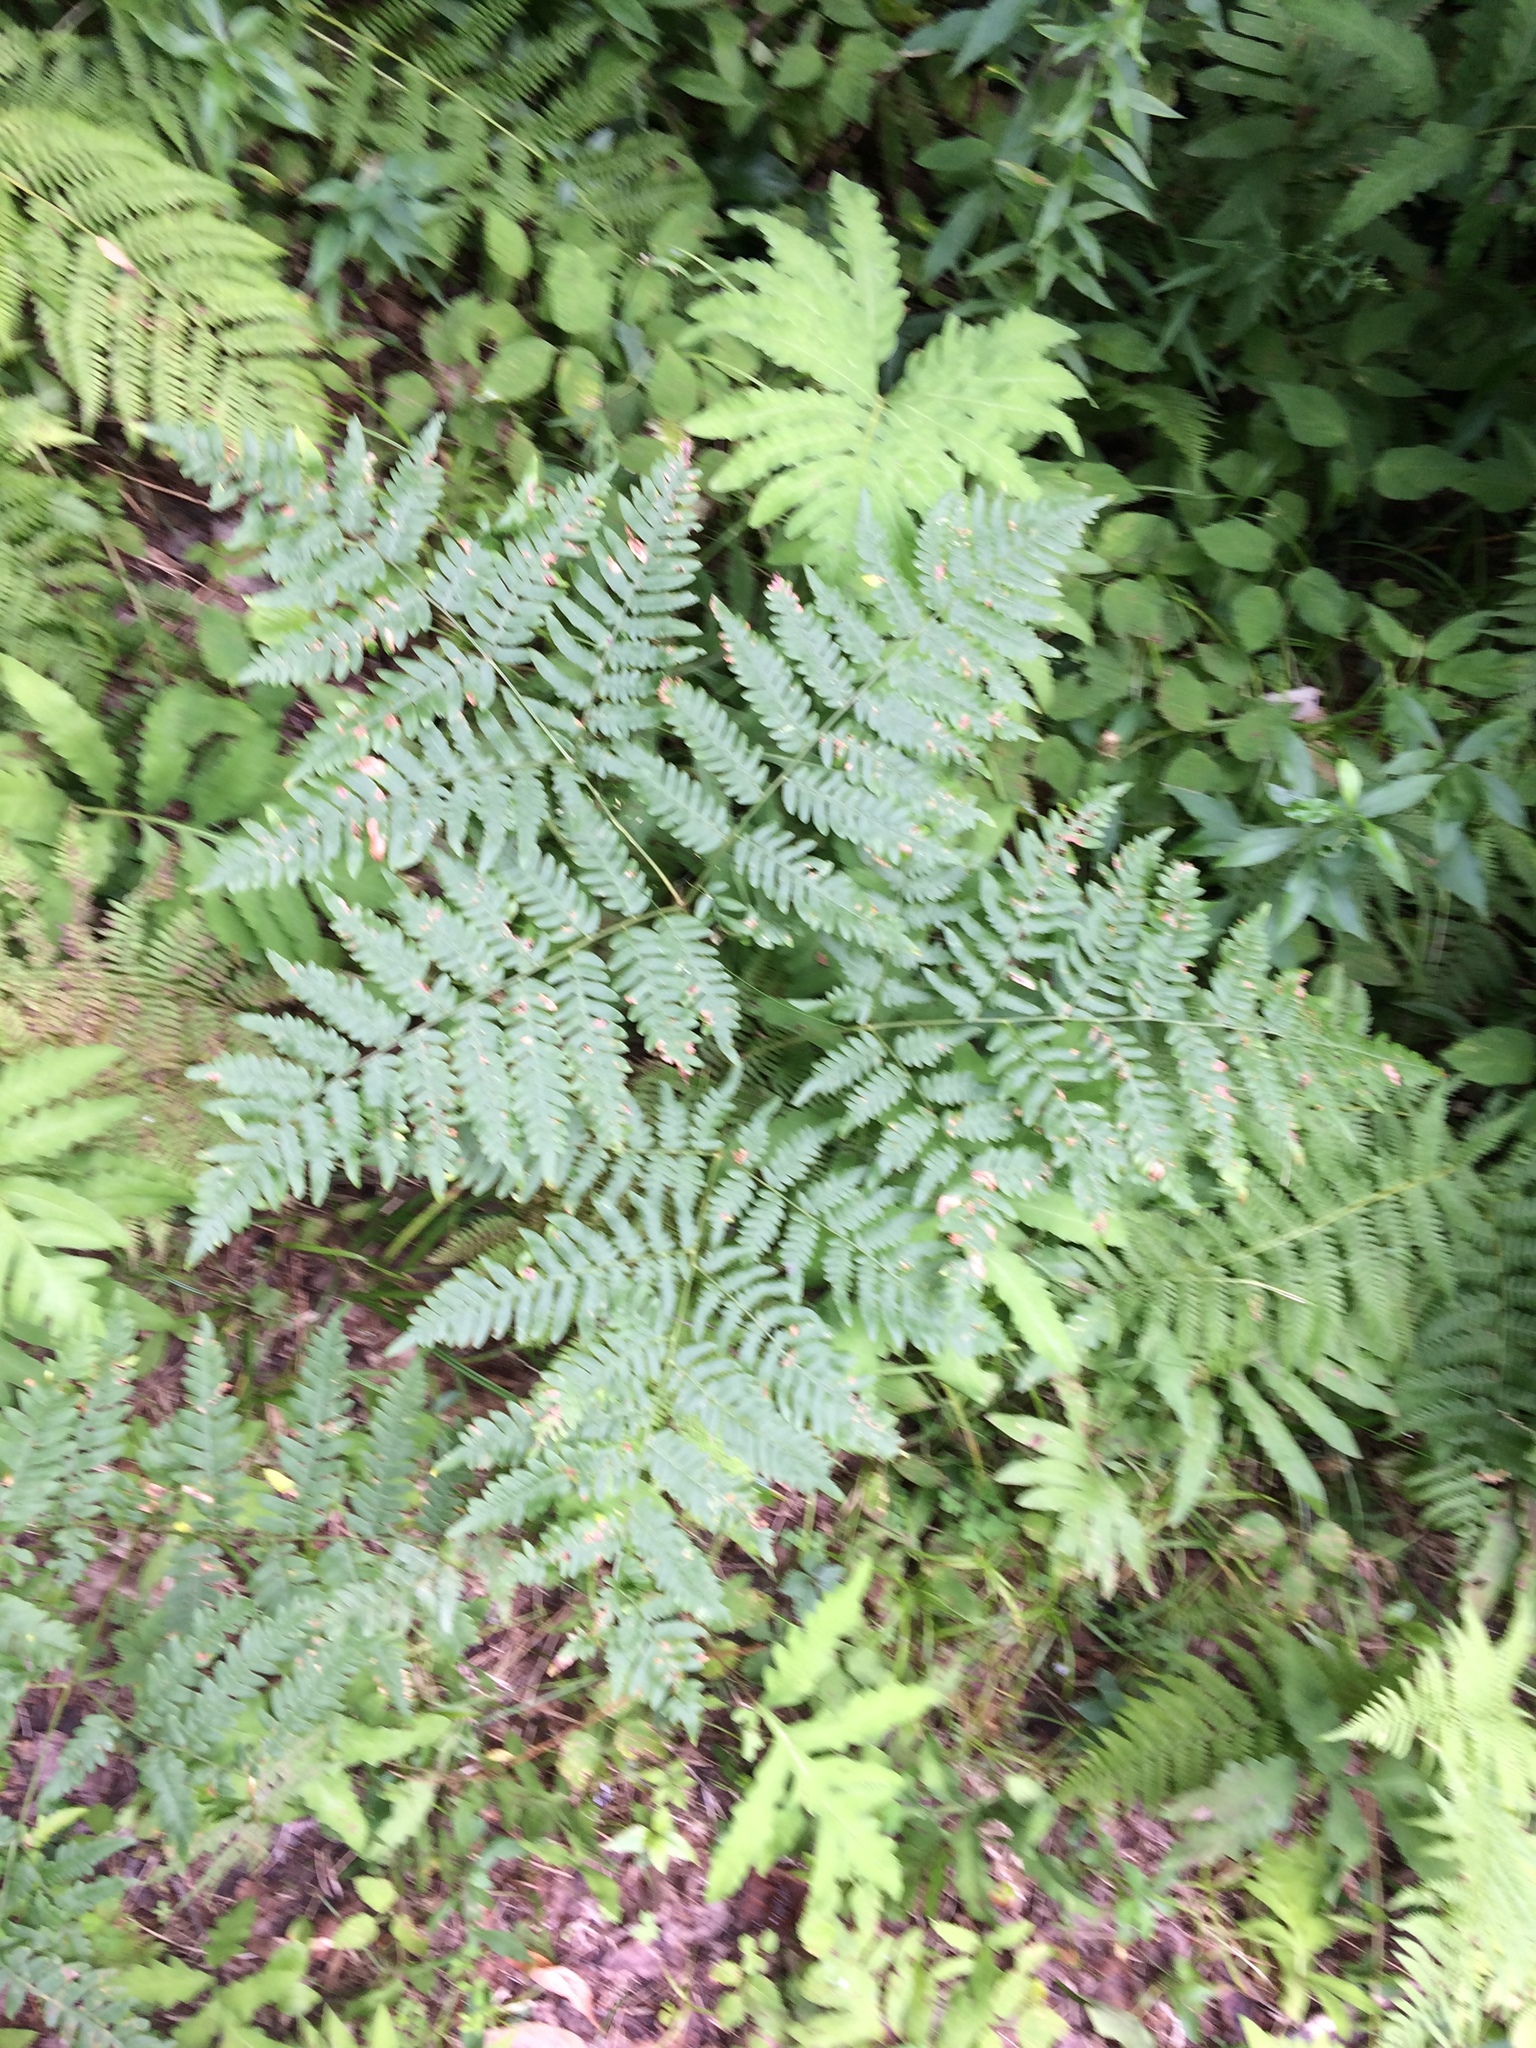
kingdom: Plantae
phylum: Tracheophyta
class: Polypodiopsida
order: Polypodiales
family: Dennstaedtiaceae
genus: Pteridium
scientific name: Pteridium aquilinum
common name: Bracken
